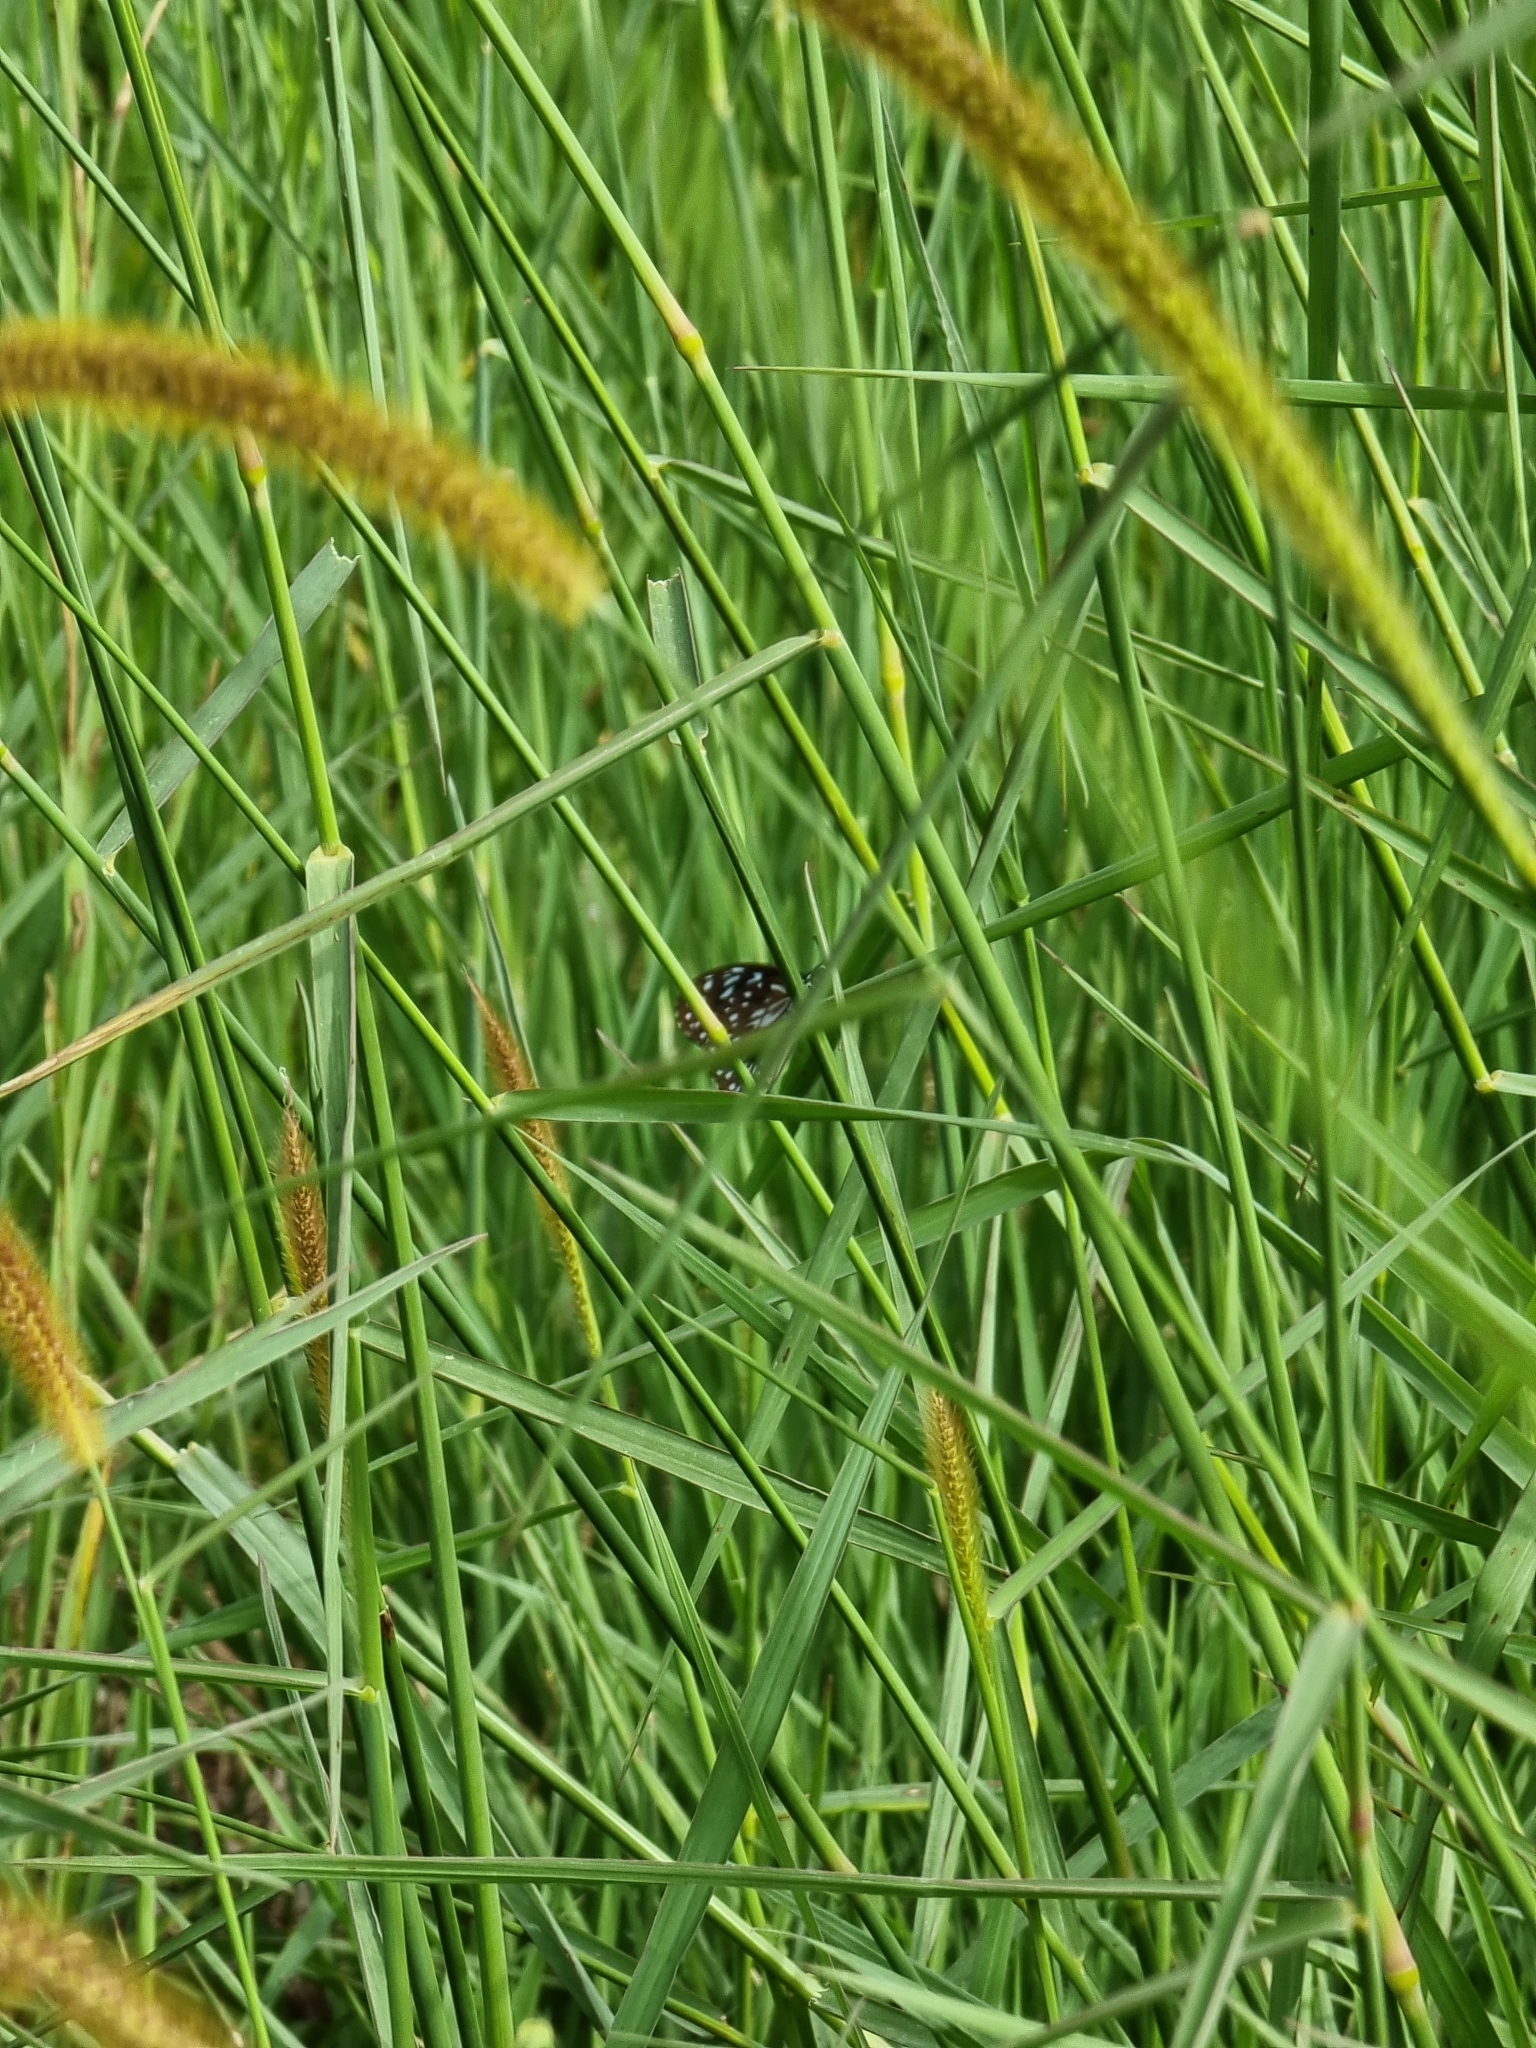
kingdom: Animalia
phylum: Arthropoda
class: Insecta
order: Lepidoptera
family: Nymphalidae
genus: Tirumala
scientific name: Tirumala hamata
